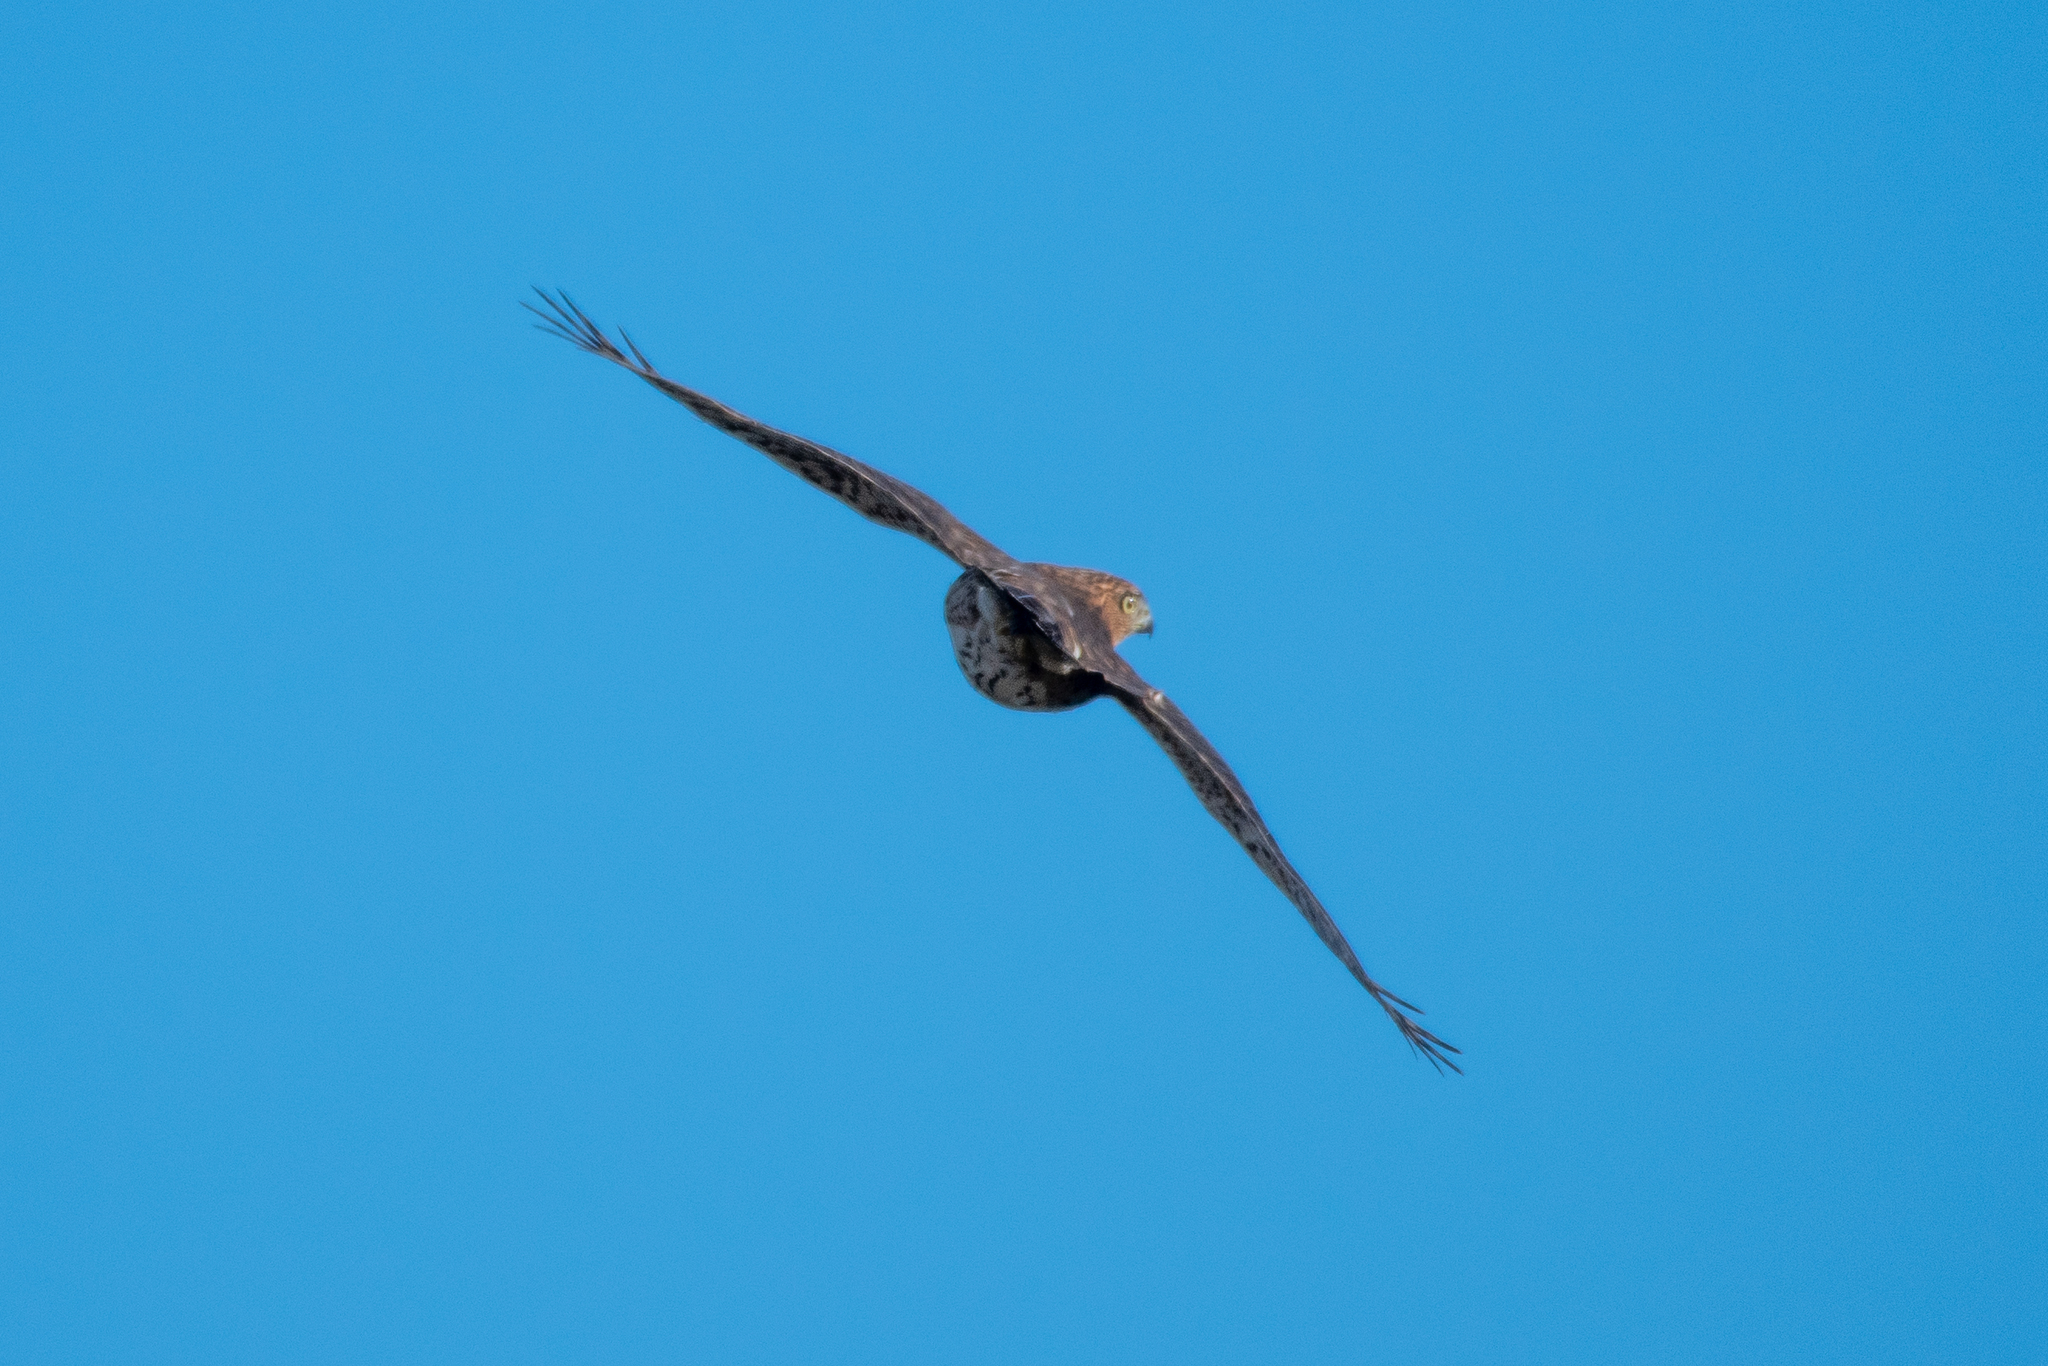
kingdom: Animalia
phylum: Chordata
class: Aves
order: Accipitriformes
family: Accipitridae
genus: Accipiter
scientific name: Accipiter cooperii
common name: Cooper's hawk
